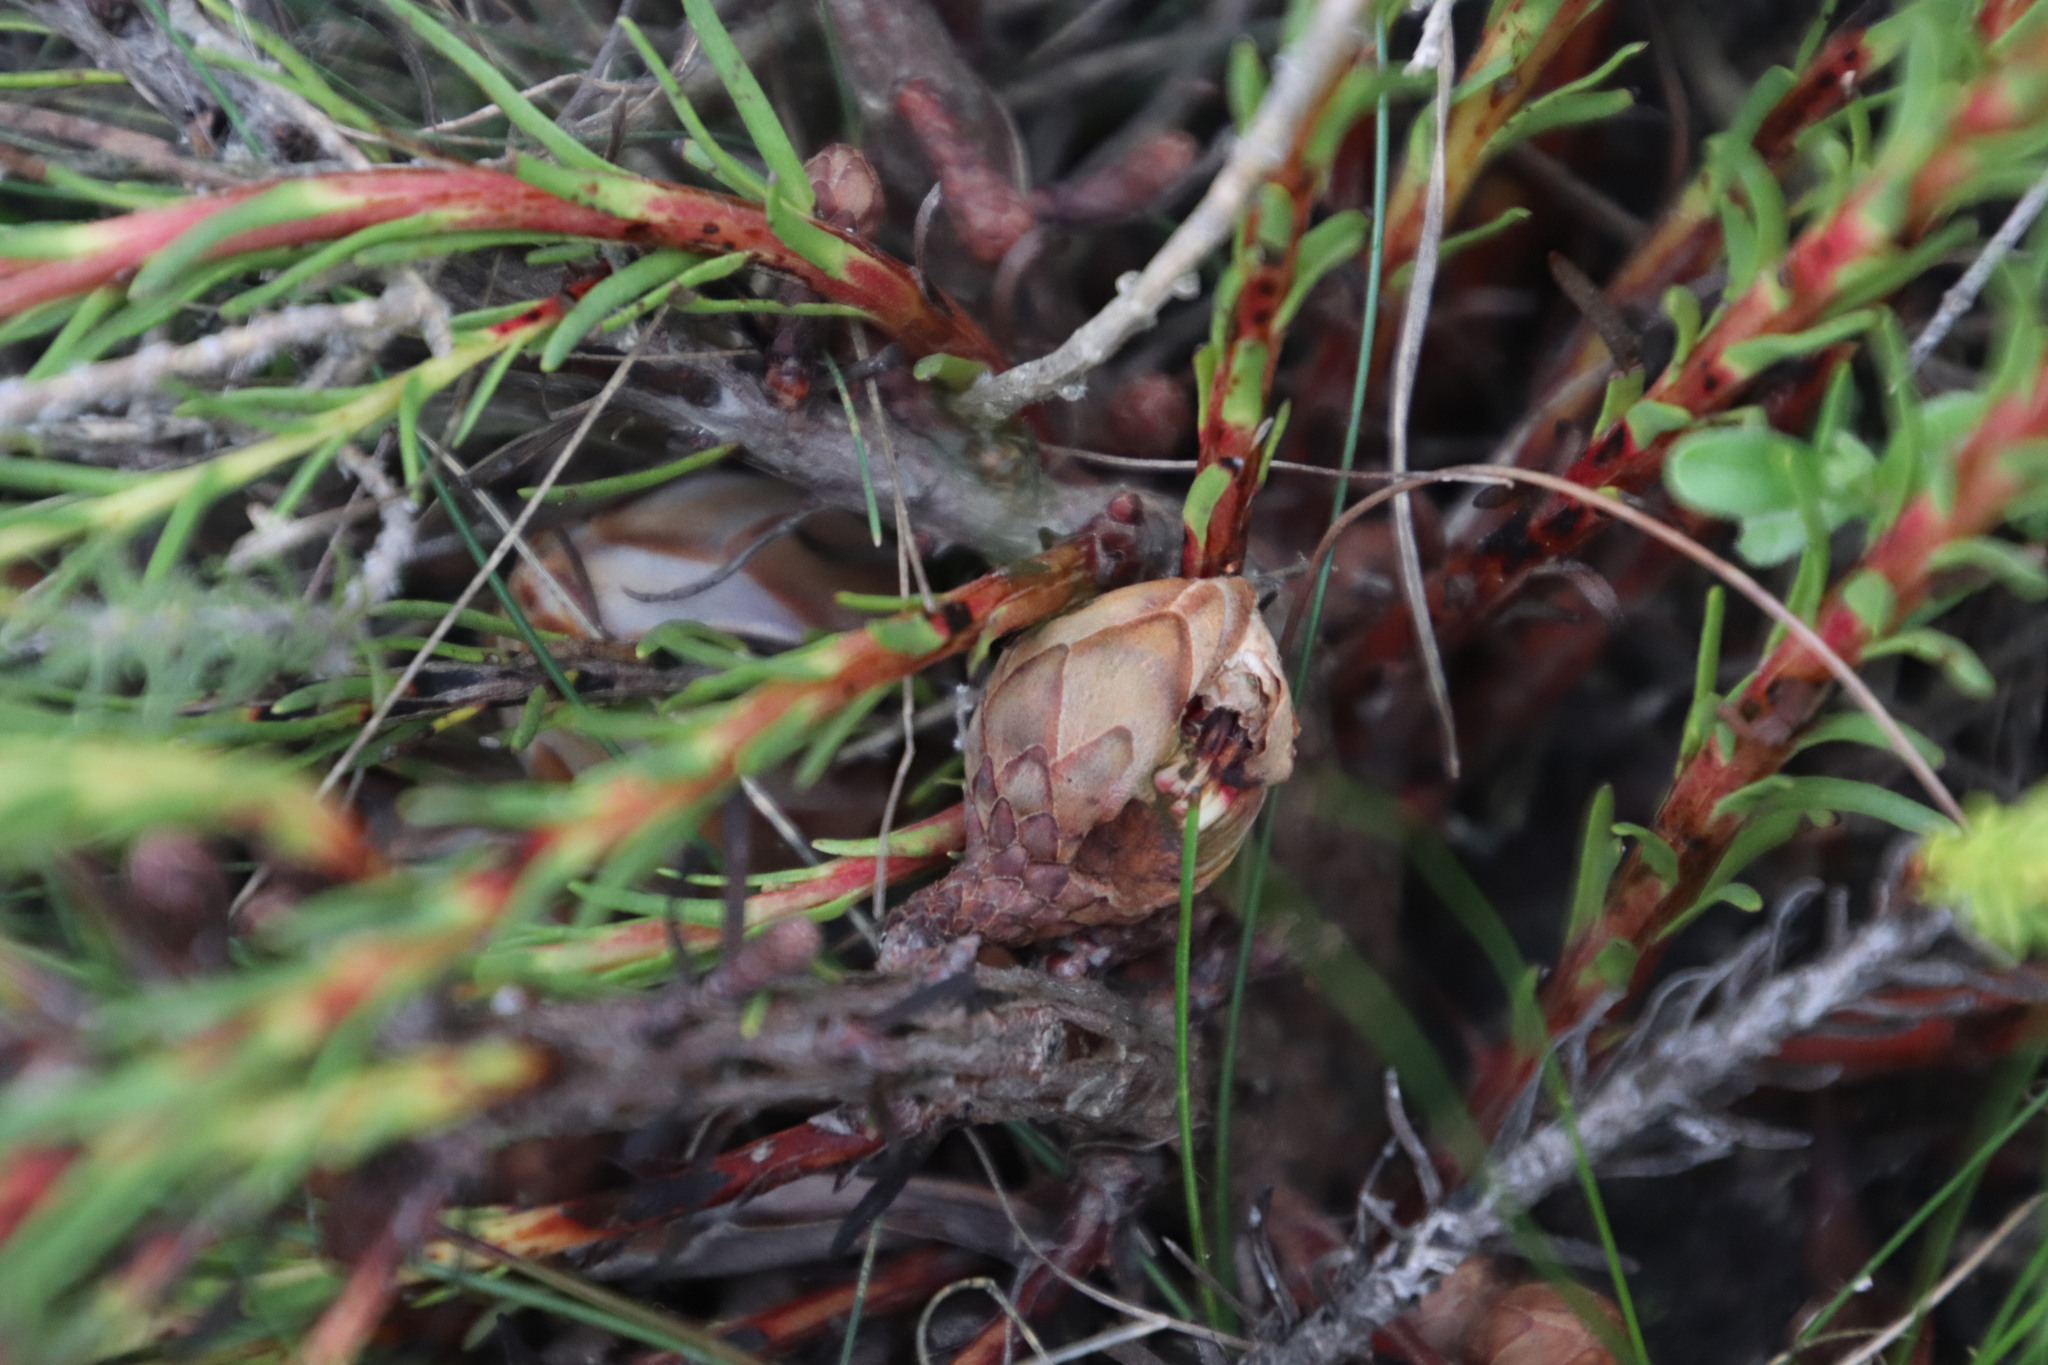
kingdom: Plantae
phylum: Tracheophyta
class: Magnoliopsida
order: Proteales
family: Proteaceae
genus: Protea
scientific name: Protea subulifolia
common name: Awl-leaf sugarbush
